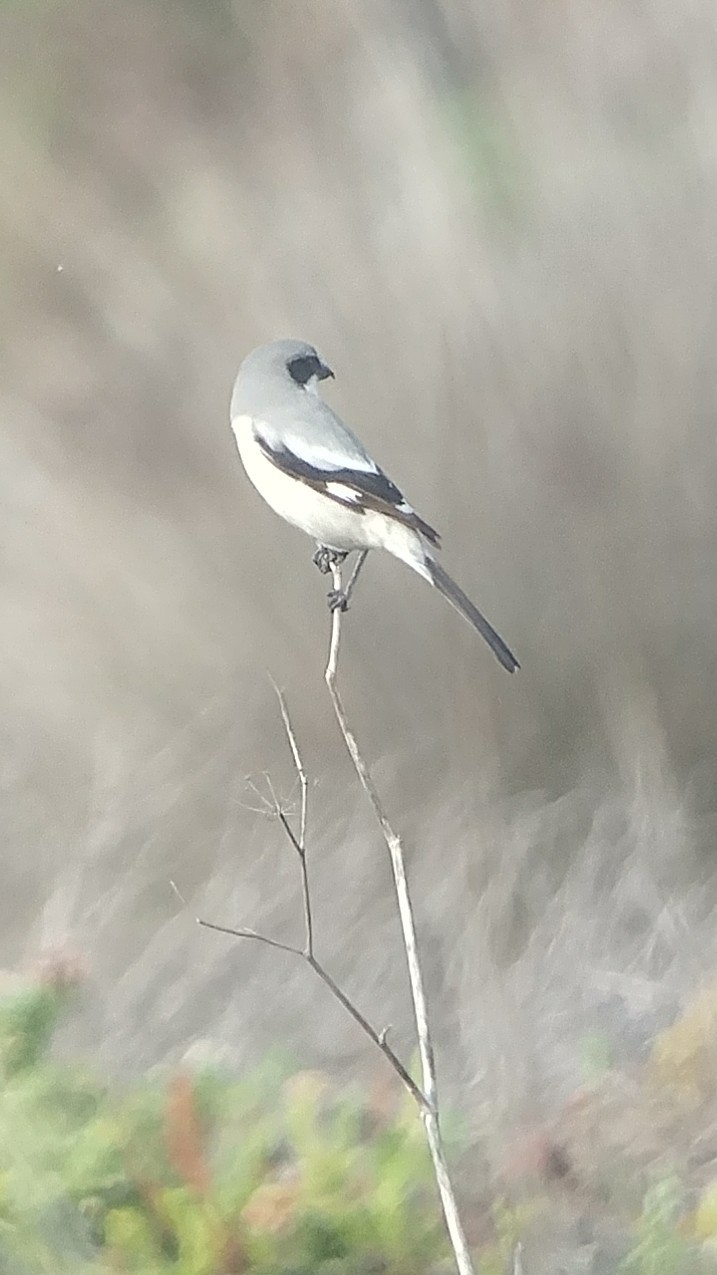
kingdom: Animalia
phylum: Chordata
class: Aves
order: Passeriformes
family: Laniidae
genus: Lanius
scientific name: Lanius ludovicianus
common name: Loggerhead shrike
